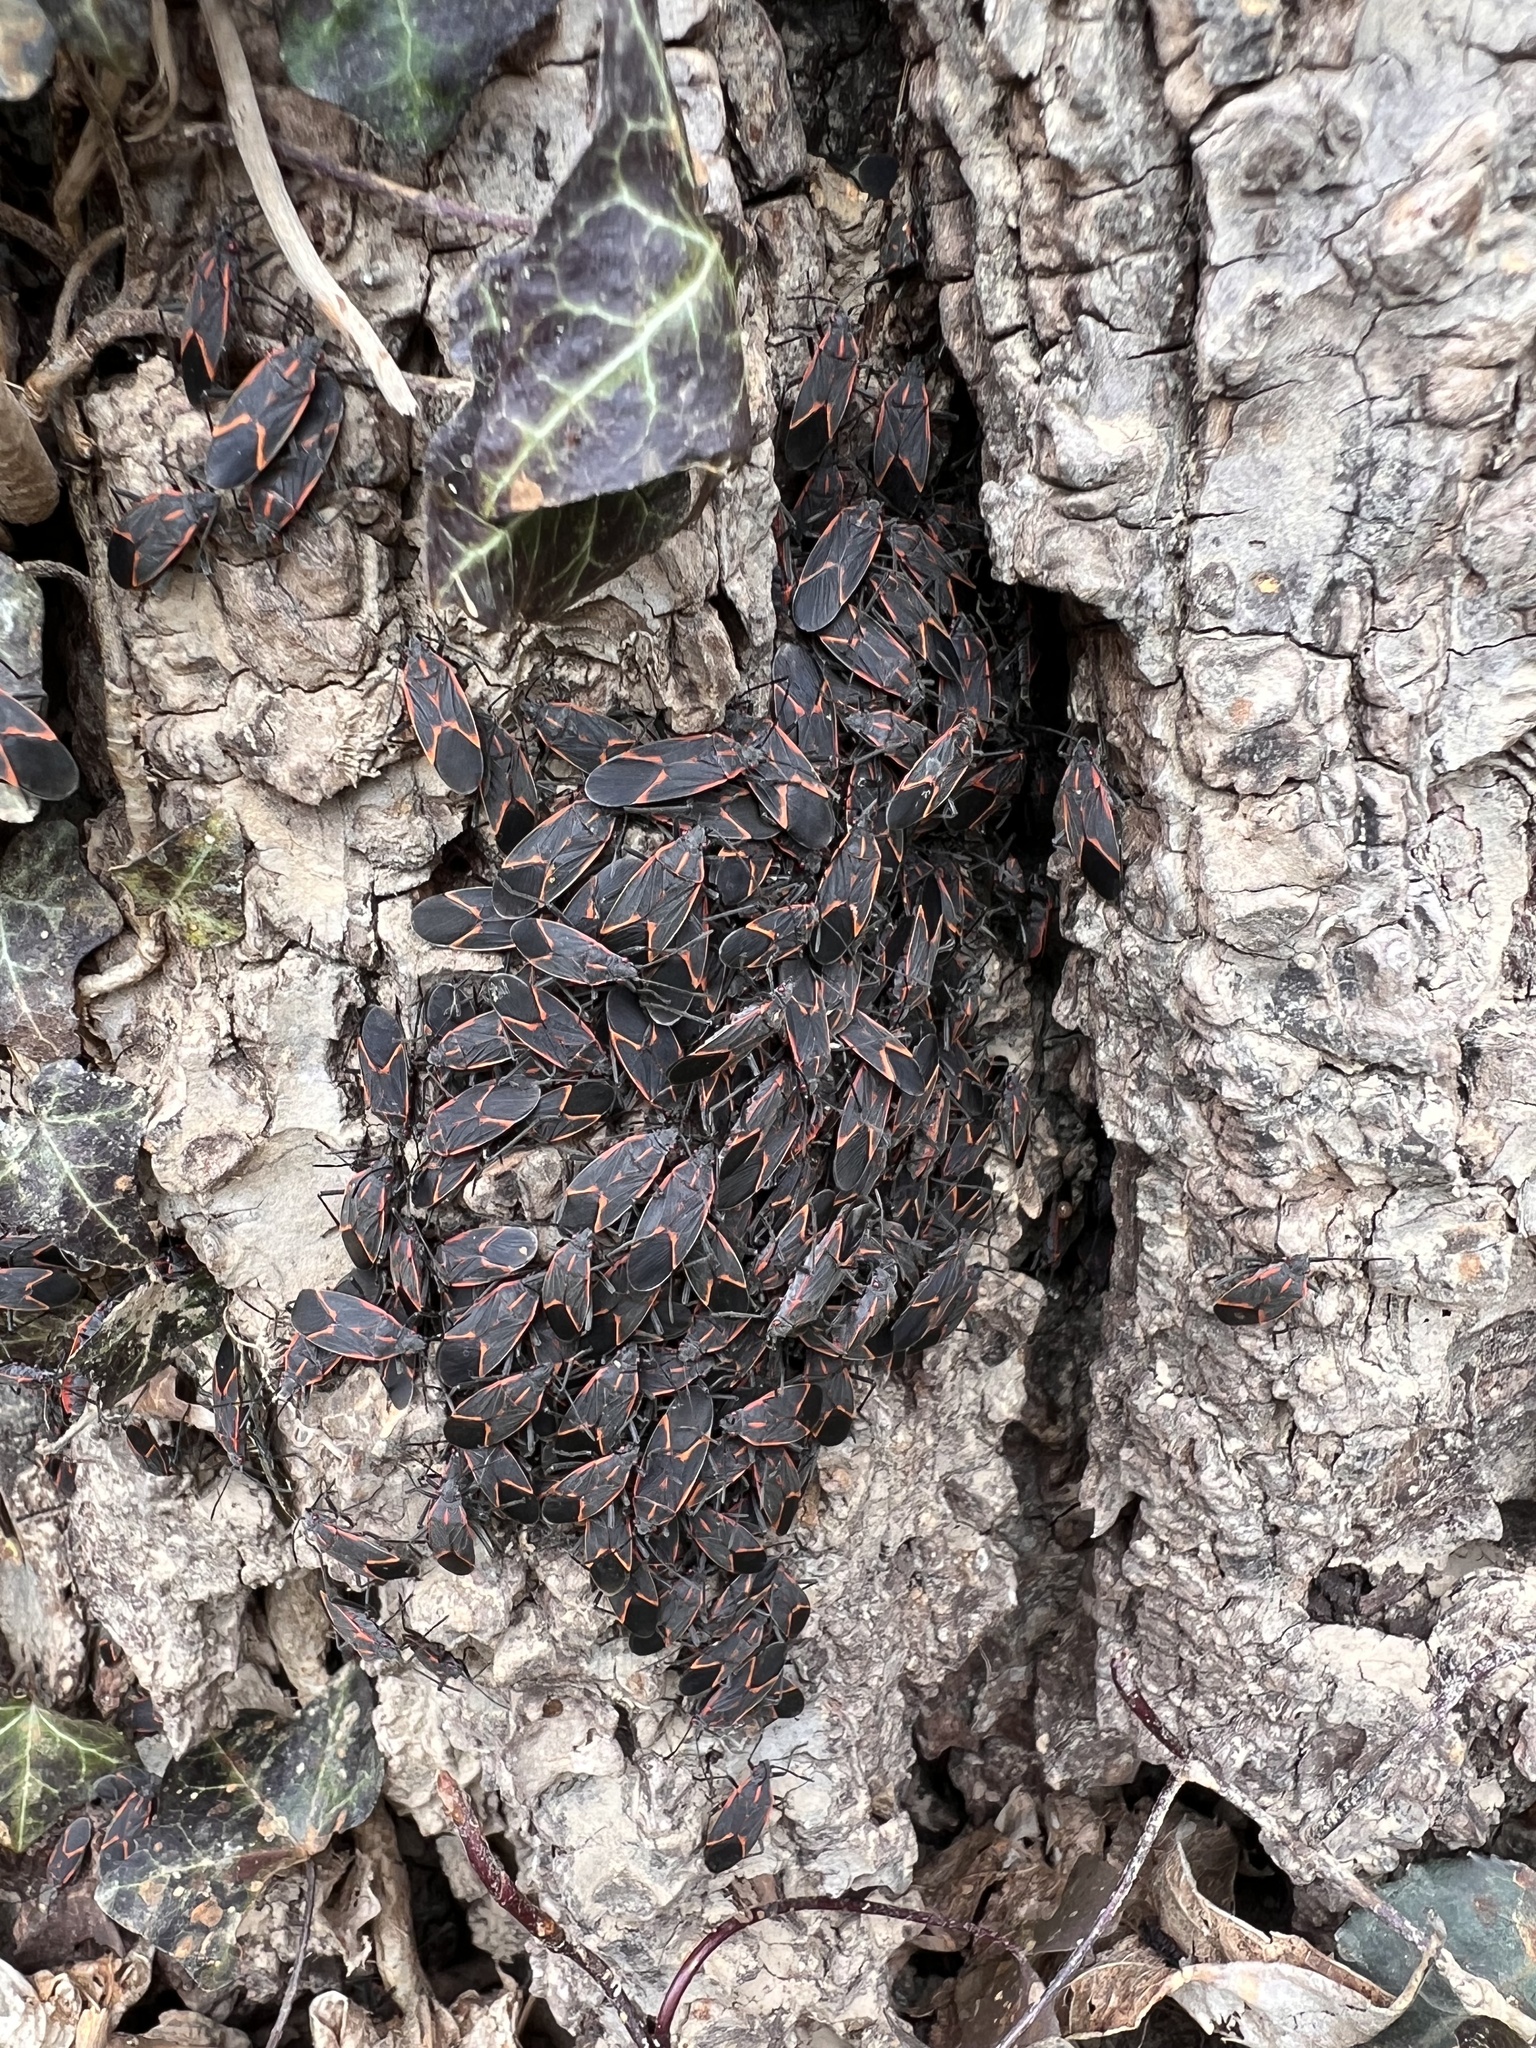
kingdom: Animalia
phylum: Arthropoda
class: Insecta
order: Hemiptera
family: Rhopalidae
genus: Boisea
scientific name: Boisea trivittata
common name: Boxelder bug
